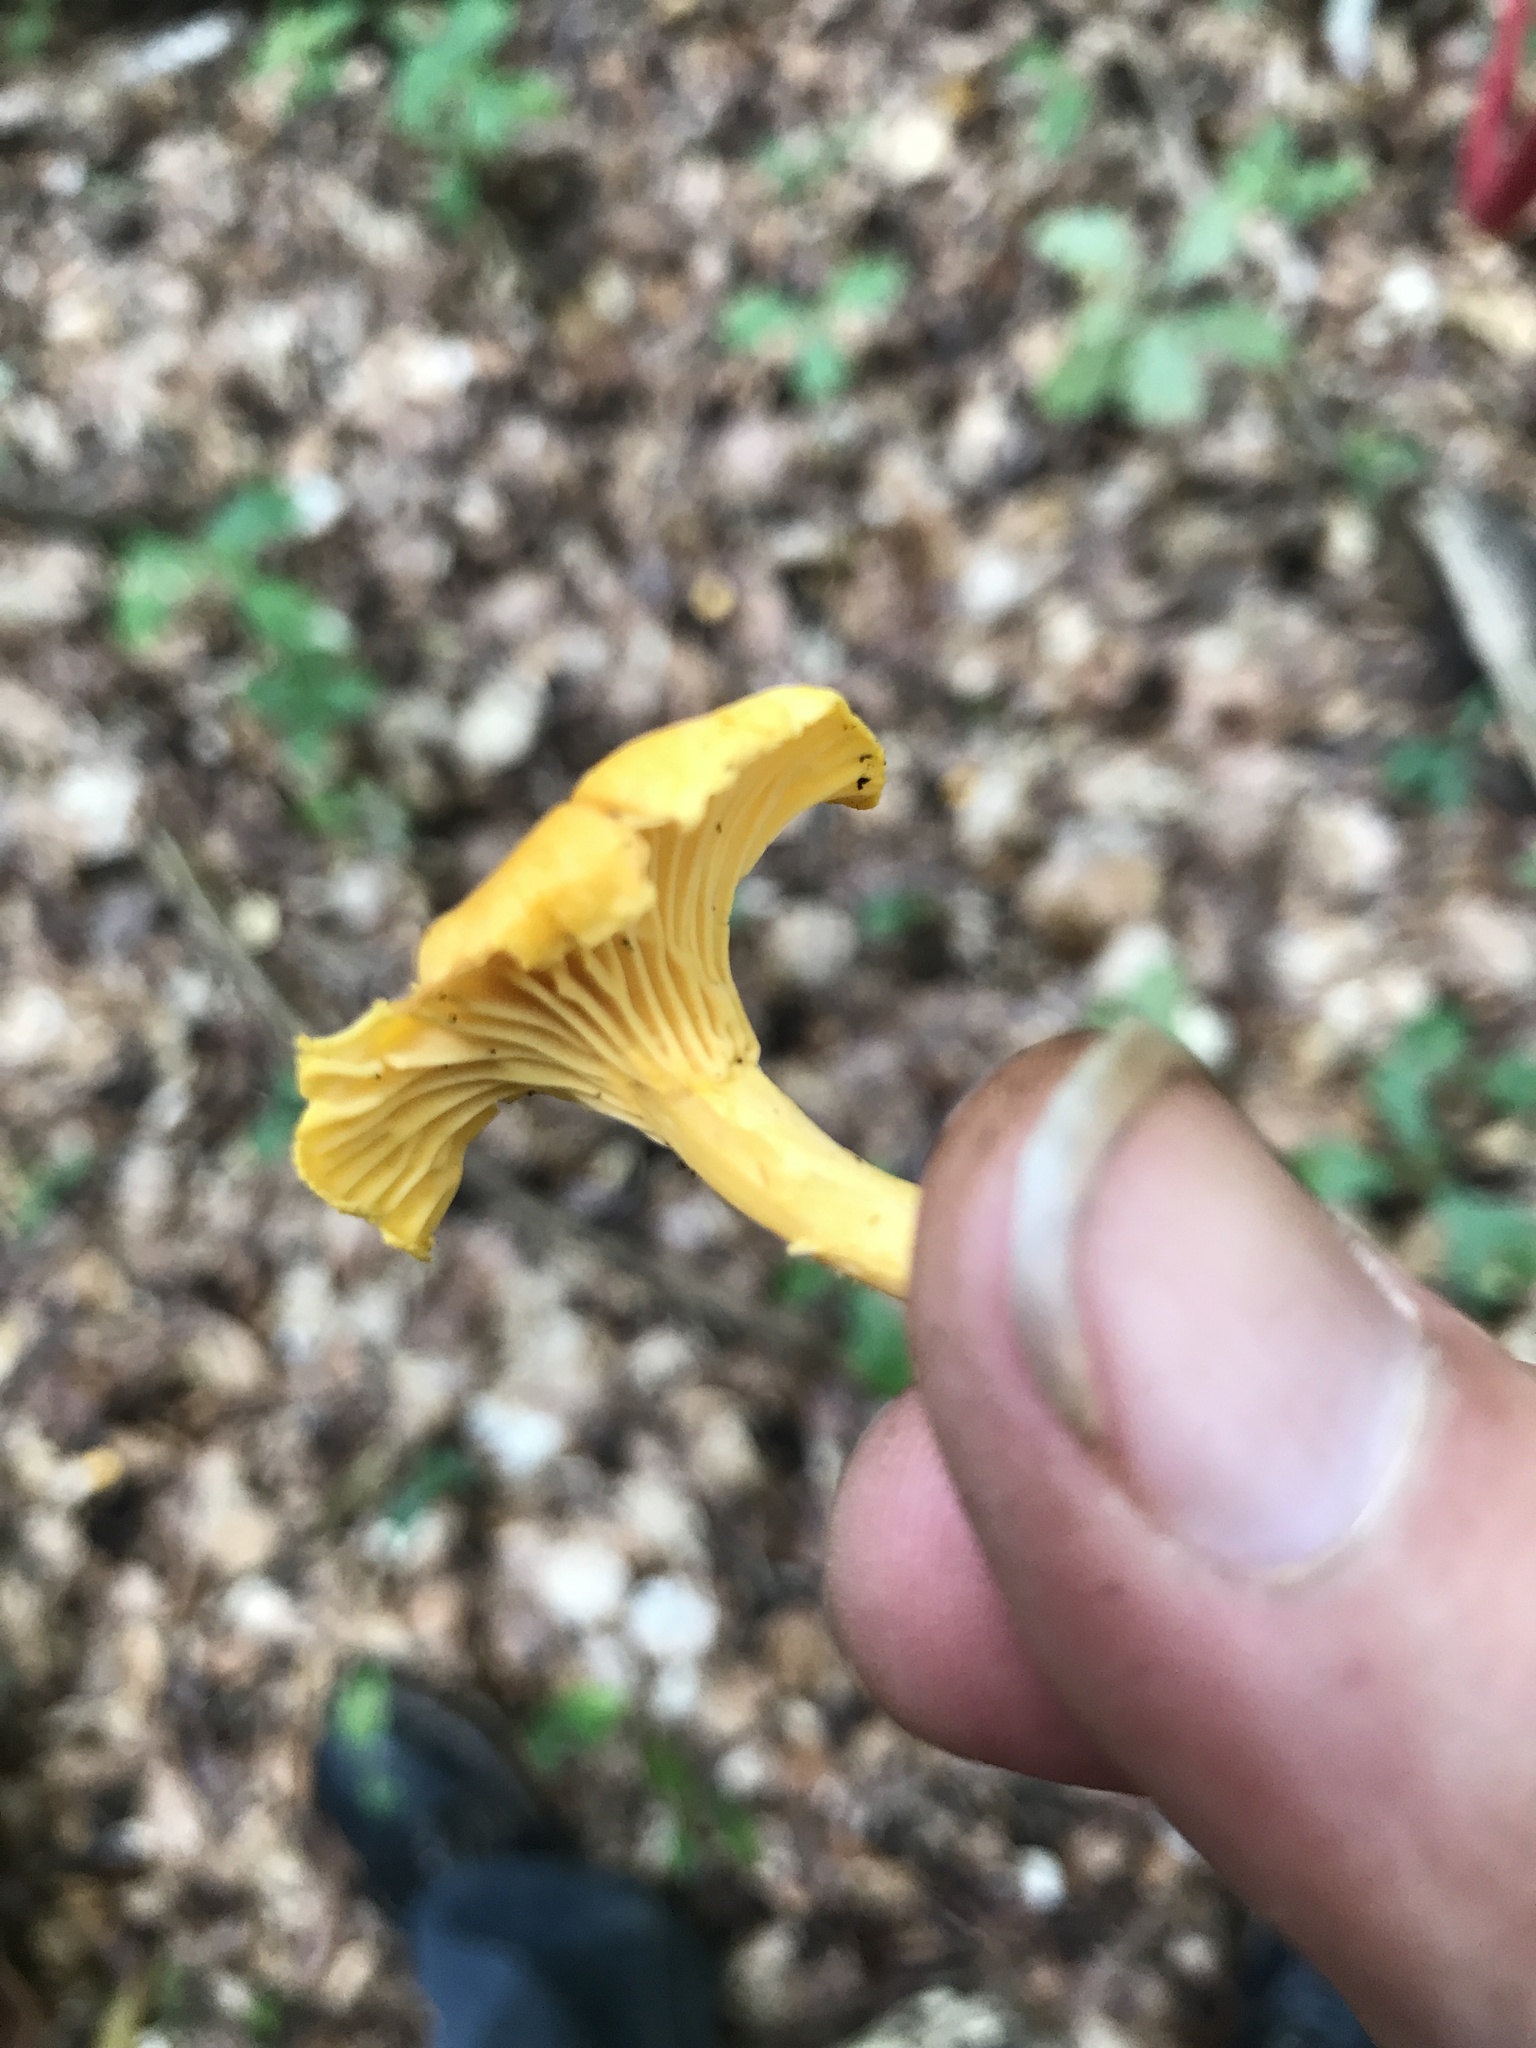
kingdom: Fungi
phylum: Basidiomycota
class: Agaricomycetes
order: Cantharellales
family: Hydnaceae
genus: Cantharellus
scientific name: Cantharellus cibarius
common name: Chanterelle
